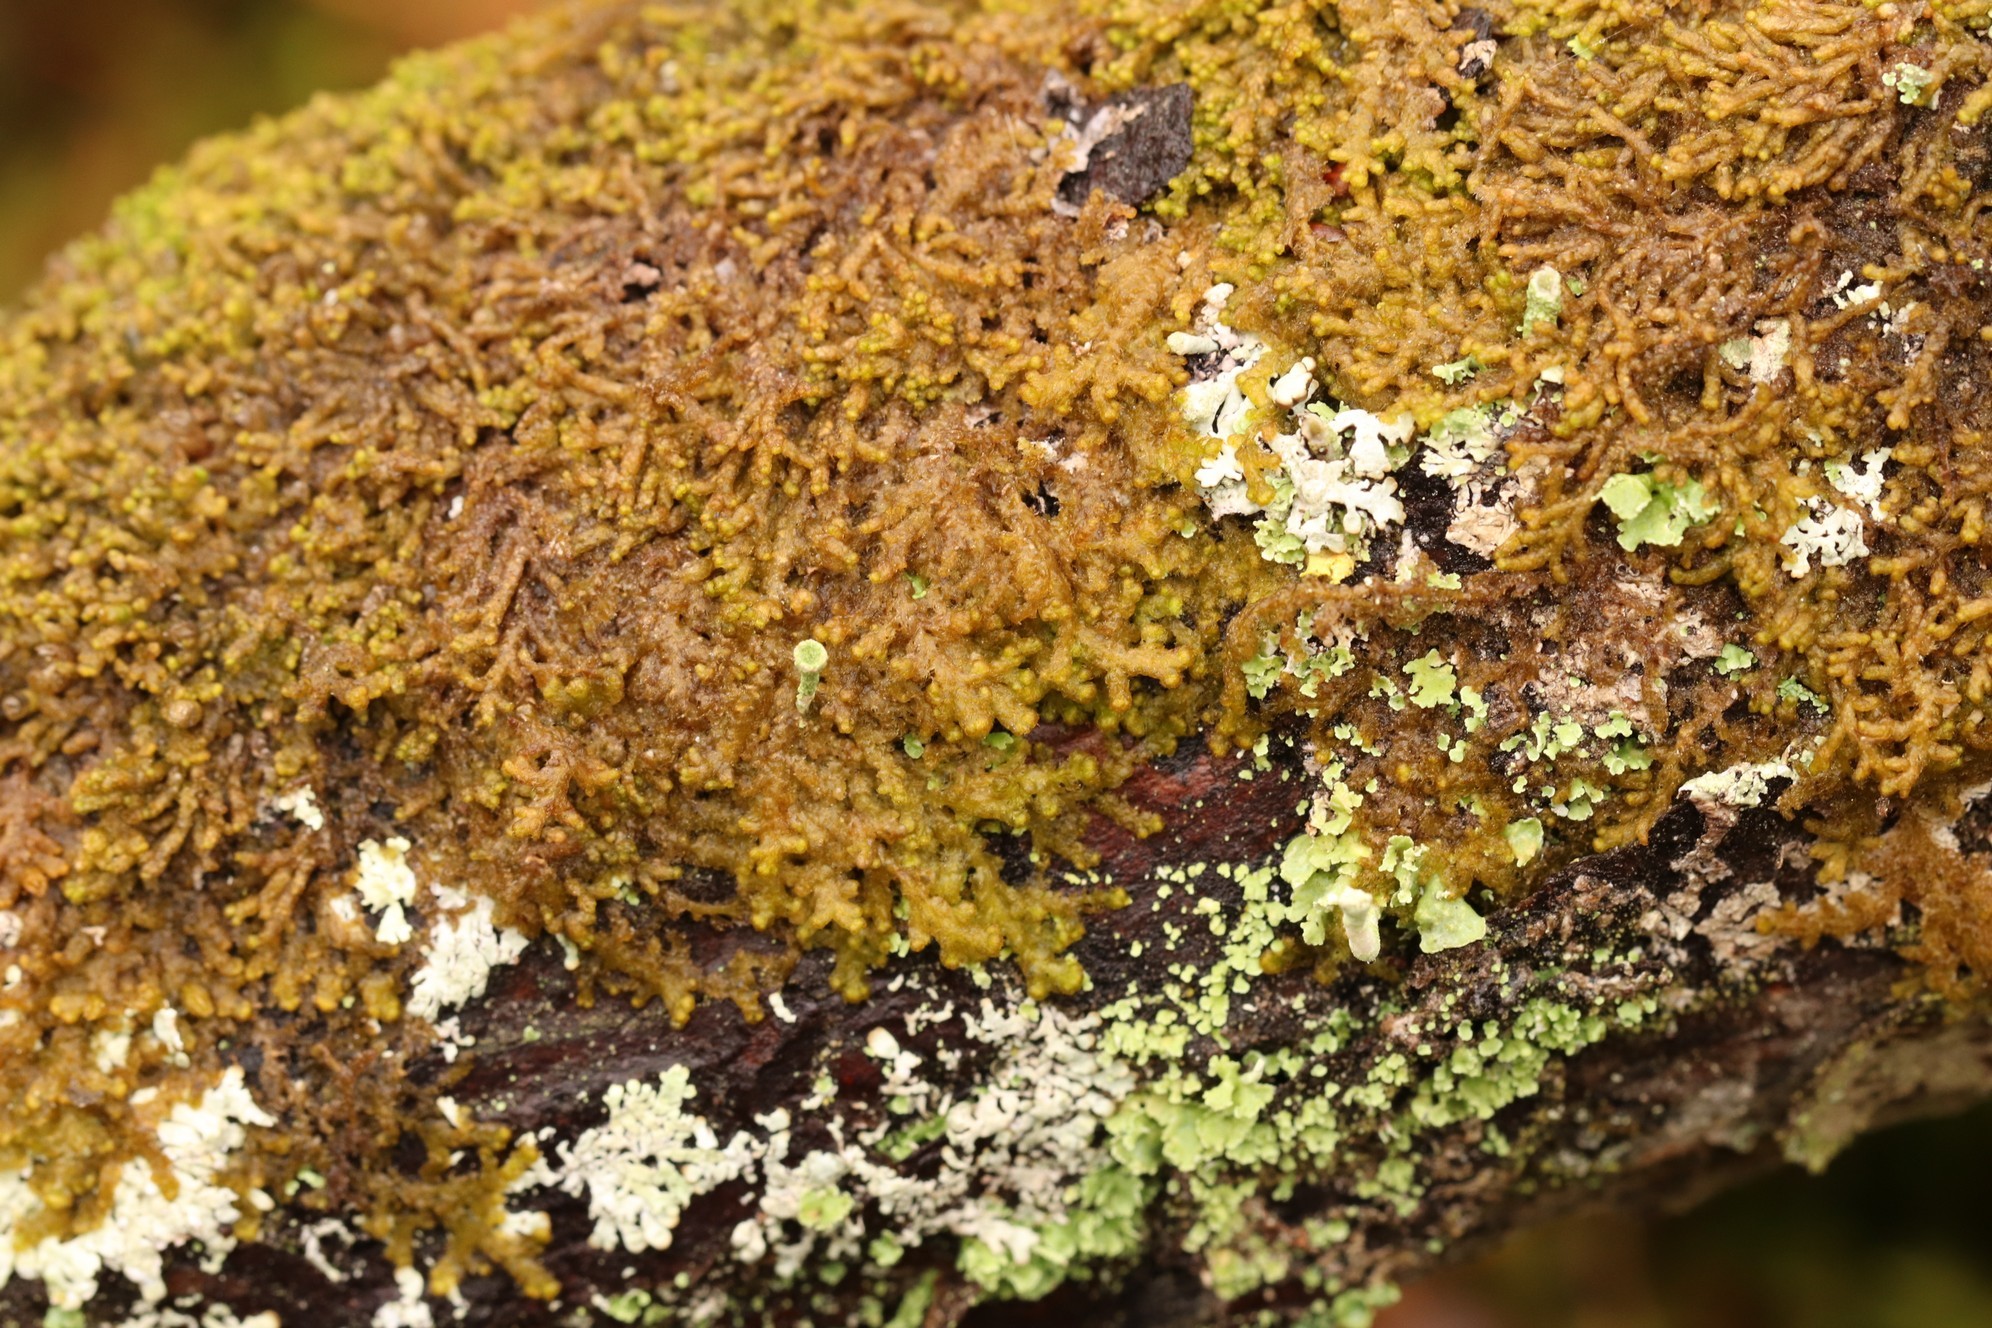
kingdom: Plantae
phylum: Marchantiophyta
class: Jungermanniopsida
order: Ptilidiales
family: Ptilidiaceae
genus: Ptilidium
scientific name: Ptilidium pulcherrimum
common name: Tree fringewort
